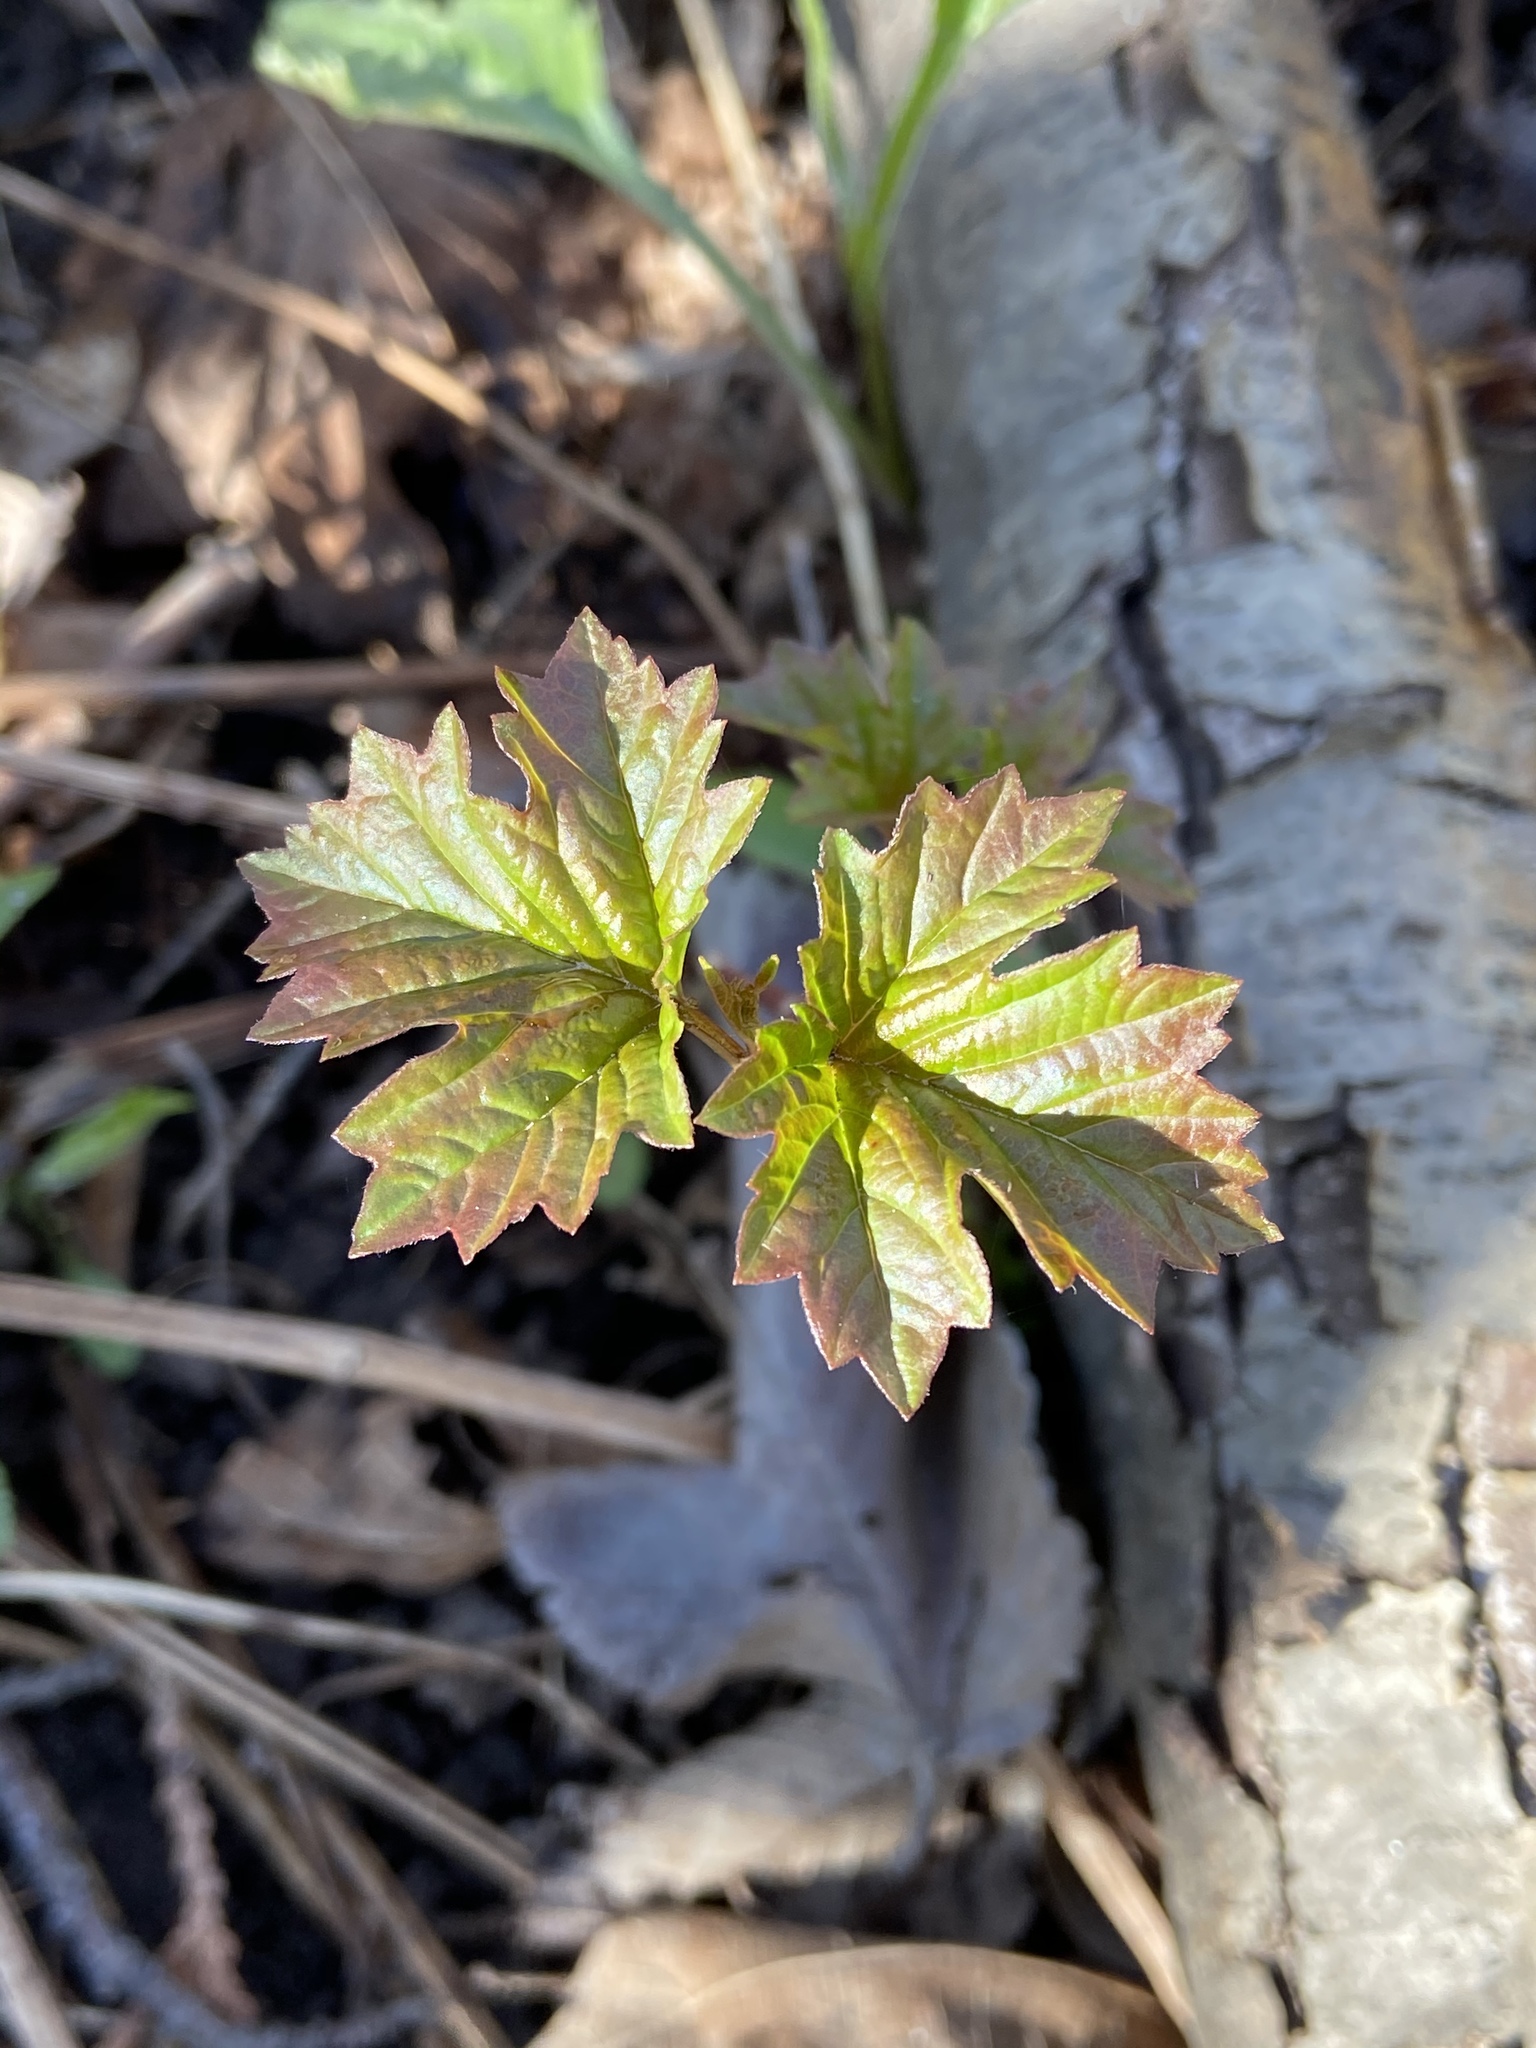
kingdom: Plantae
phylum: Tracheophyta
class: Magnoliopsida
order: Dipsacales
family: Viburnaceae
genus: Viburnum
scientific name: Viburnum opulus
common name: Guelder-rose
